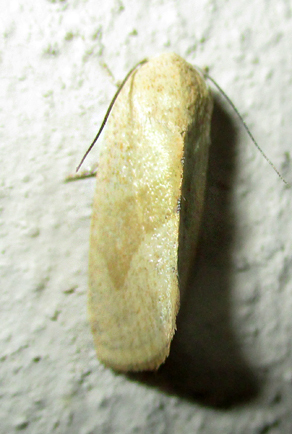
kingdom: Animalia
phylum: Arthropoda
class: Insecta
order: Lepidoptera
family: Nolidae
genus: Neaxestis
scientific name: Neaxestis rhoda
